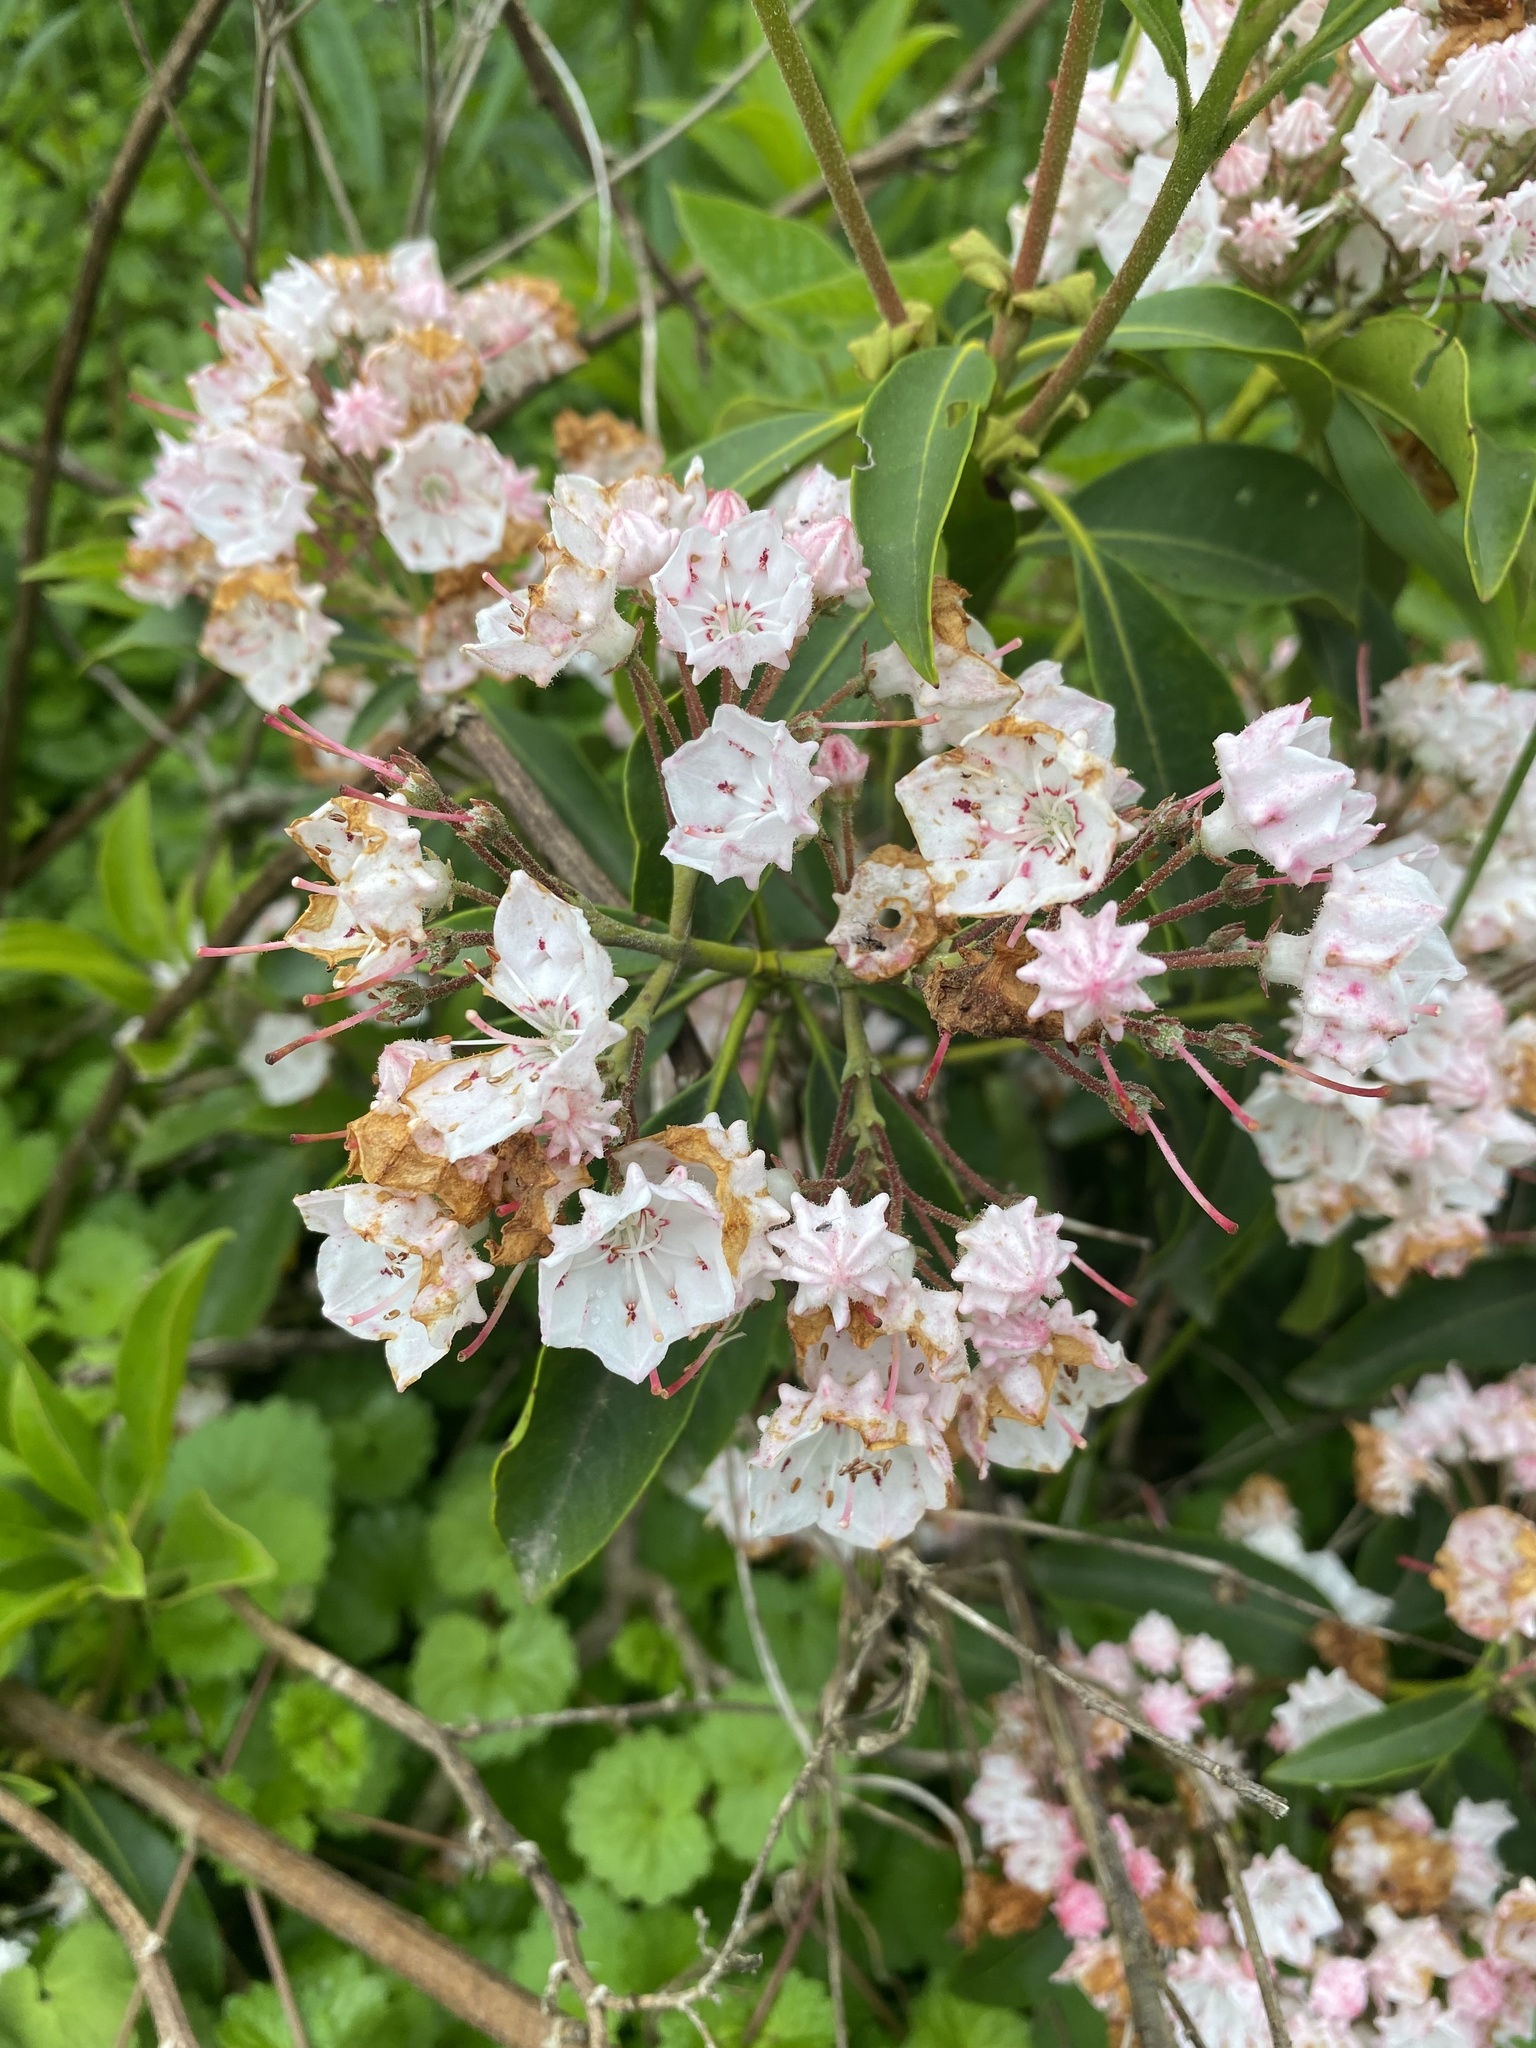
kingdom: Plantae
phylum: Tracheophyta
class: Magnoliopsida
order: Ericales
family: Ericaceae
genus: Kalmia
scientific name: Kalmia latifolia
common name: Mountain-laurel
